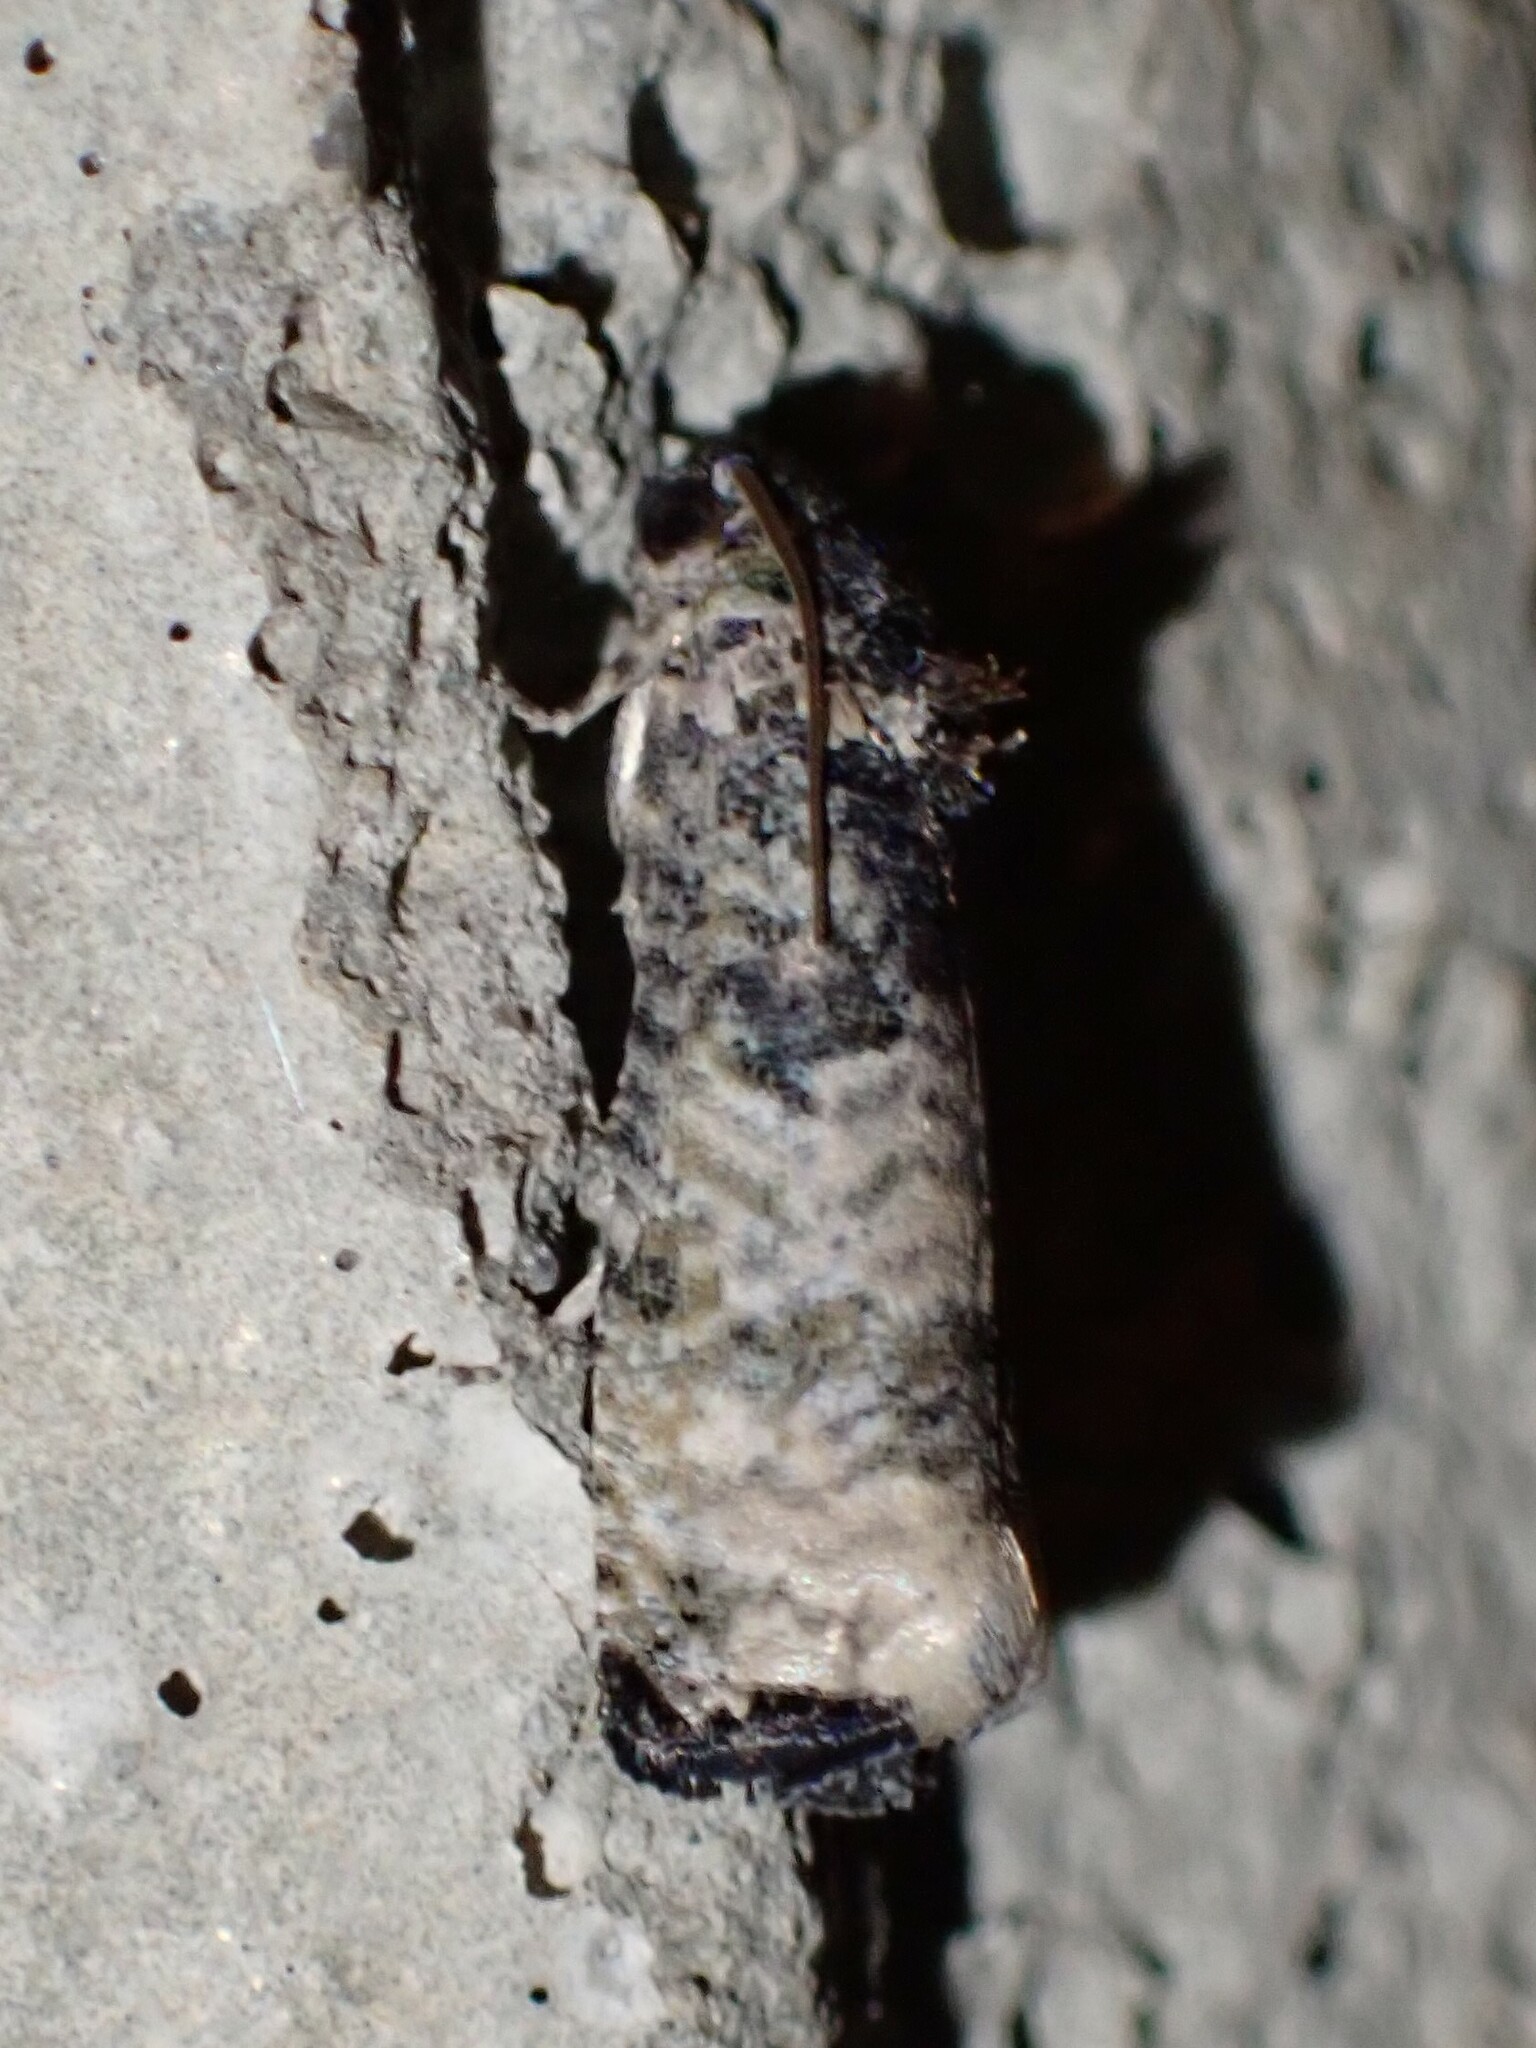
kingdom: Animalia
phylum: Arthropoda
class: Insecta
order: Lepidoptera
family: Tortricidae
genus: Epiblema
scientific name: Epiblema obfuscana
